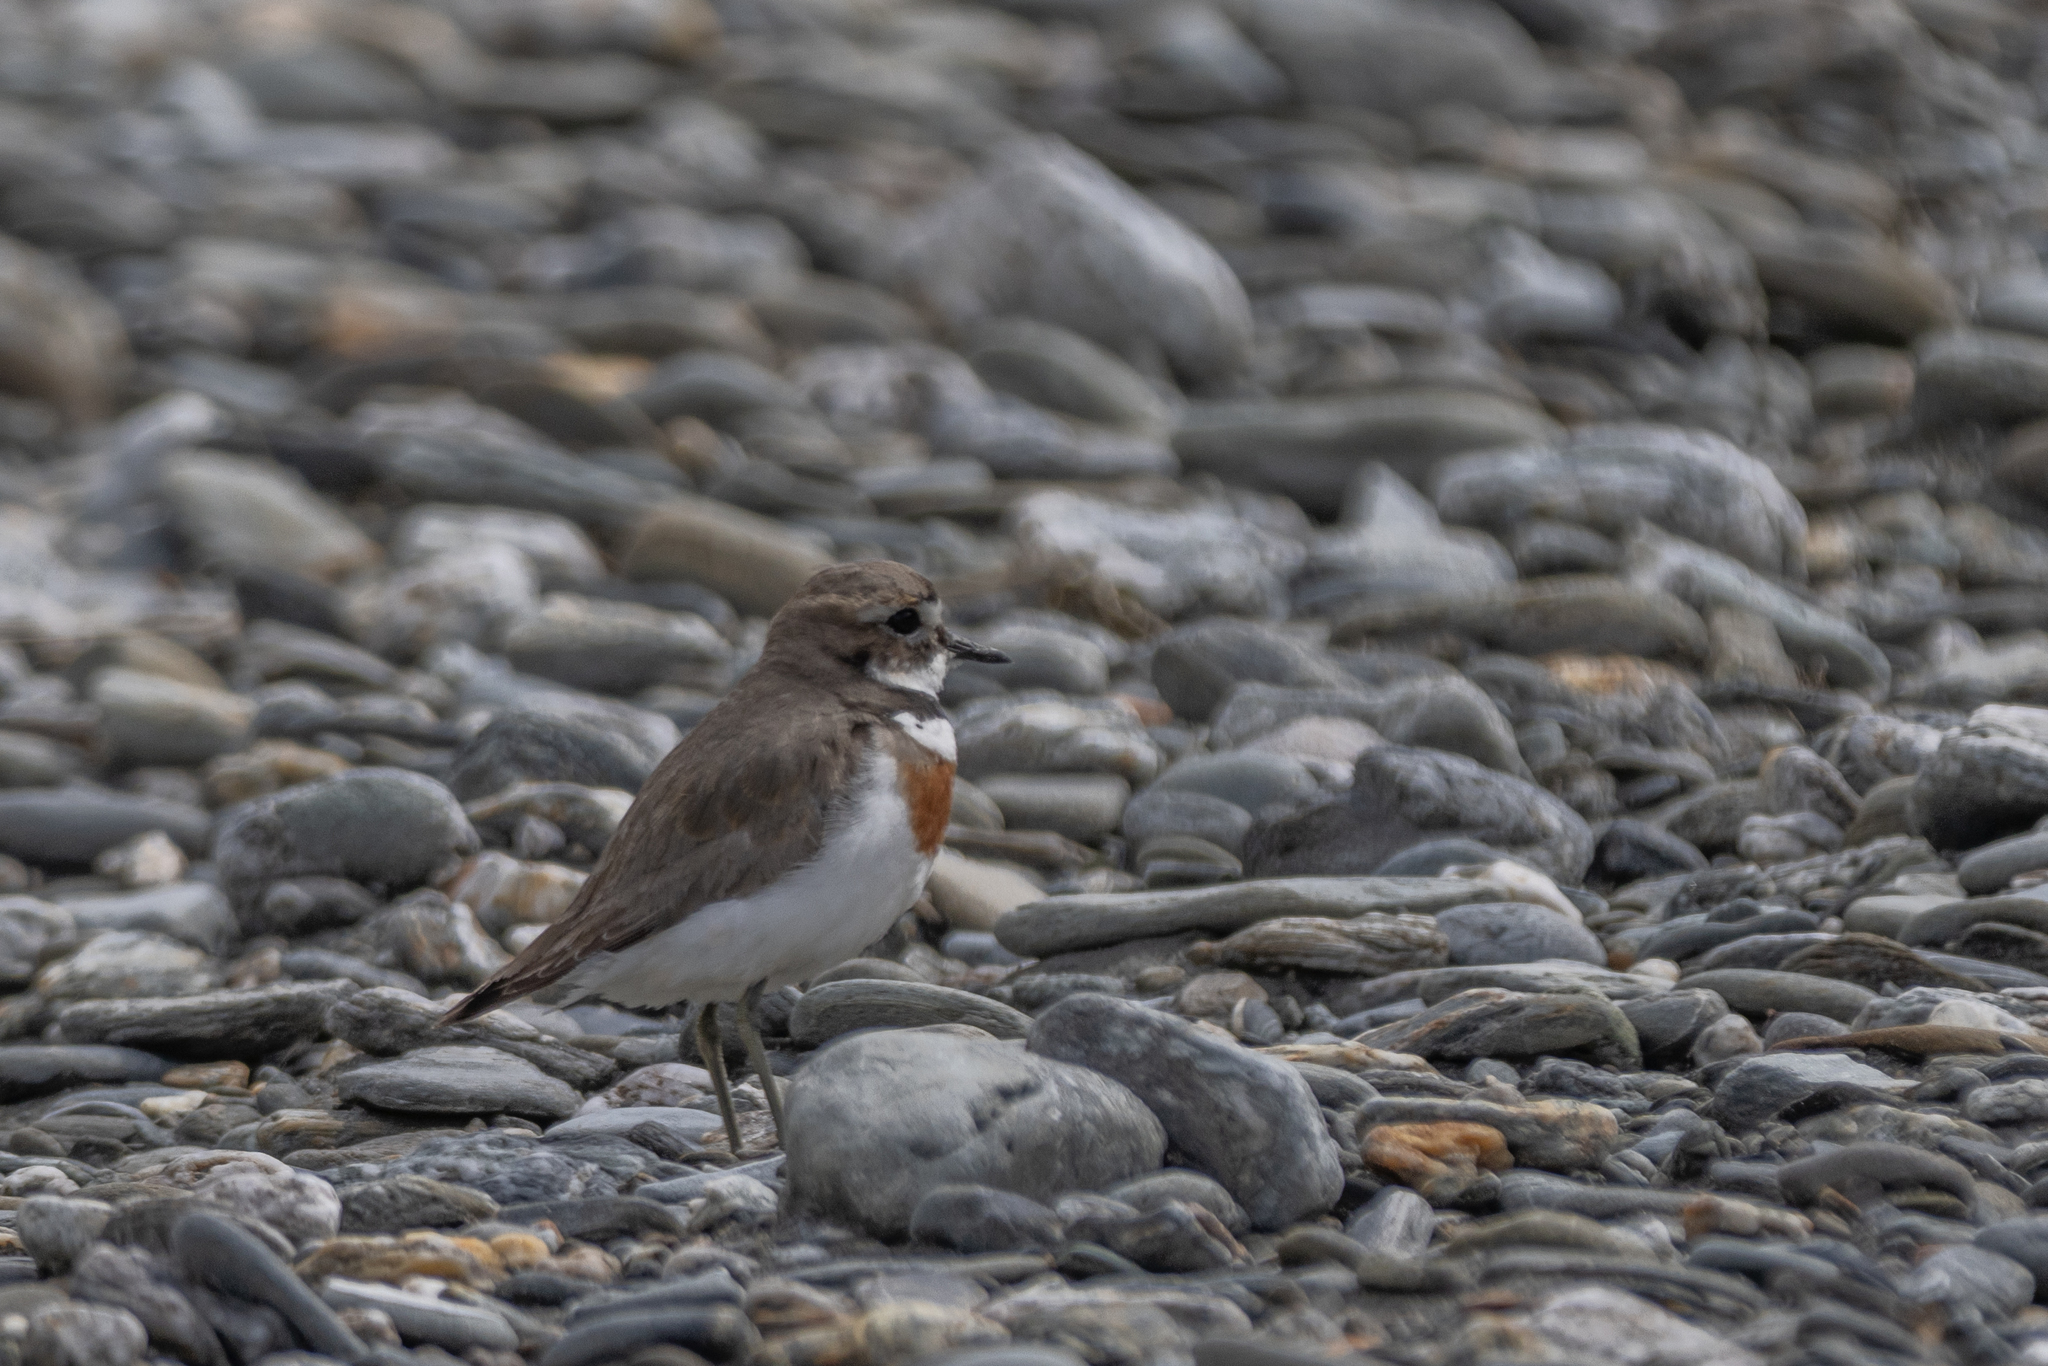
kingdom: Animalia
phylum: Chordata
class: Aves
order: Charadriiformes
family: Charadriidae
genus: Anarhynchus
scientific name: Anarhynchus
